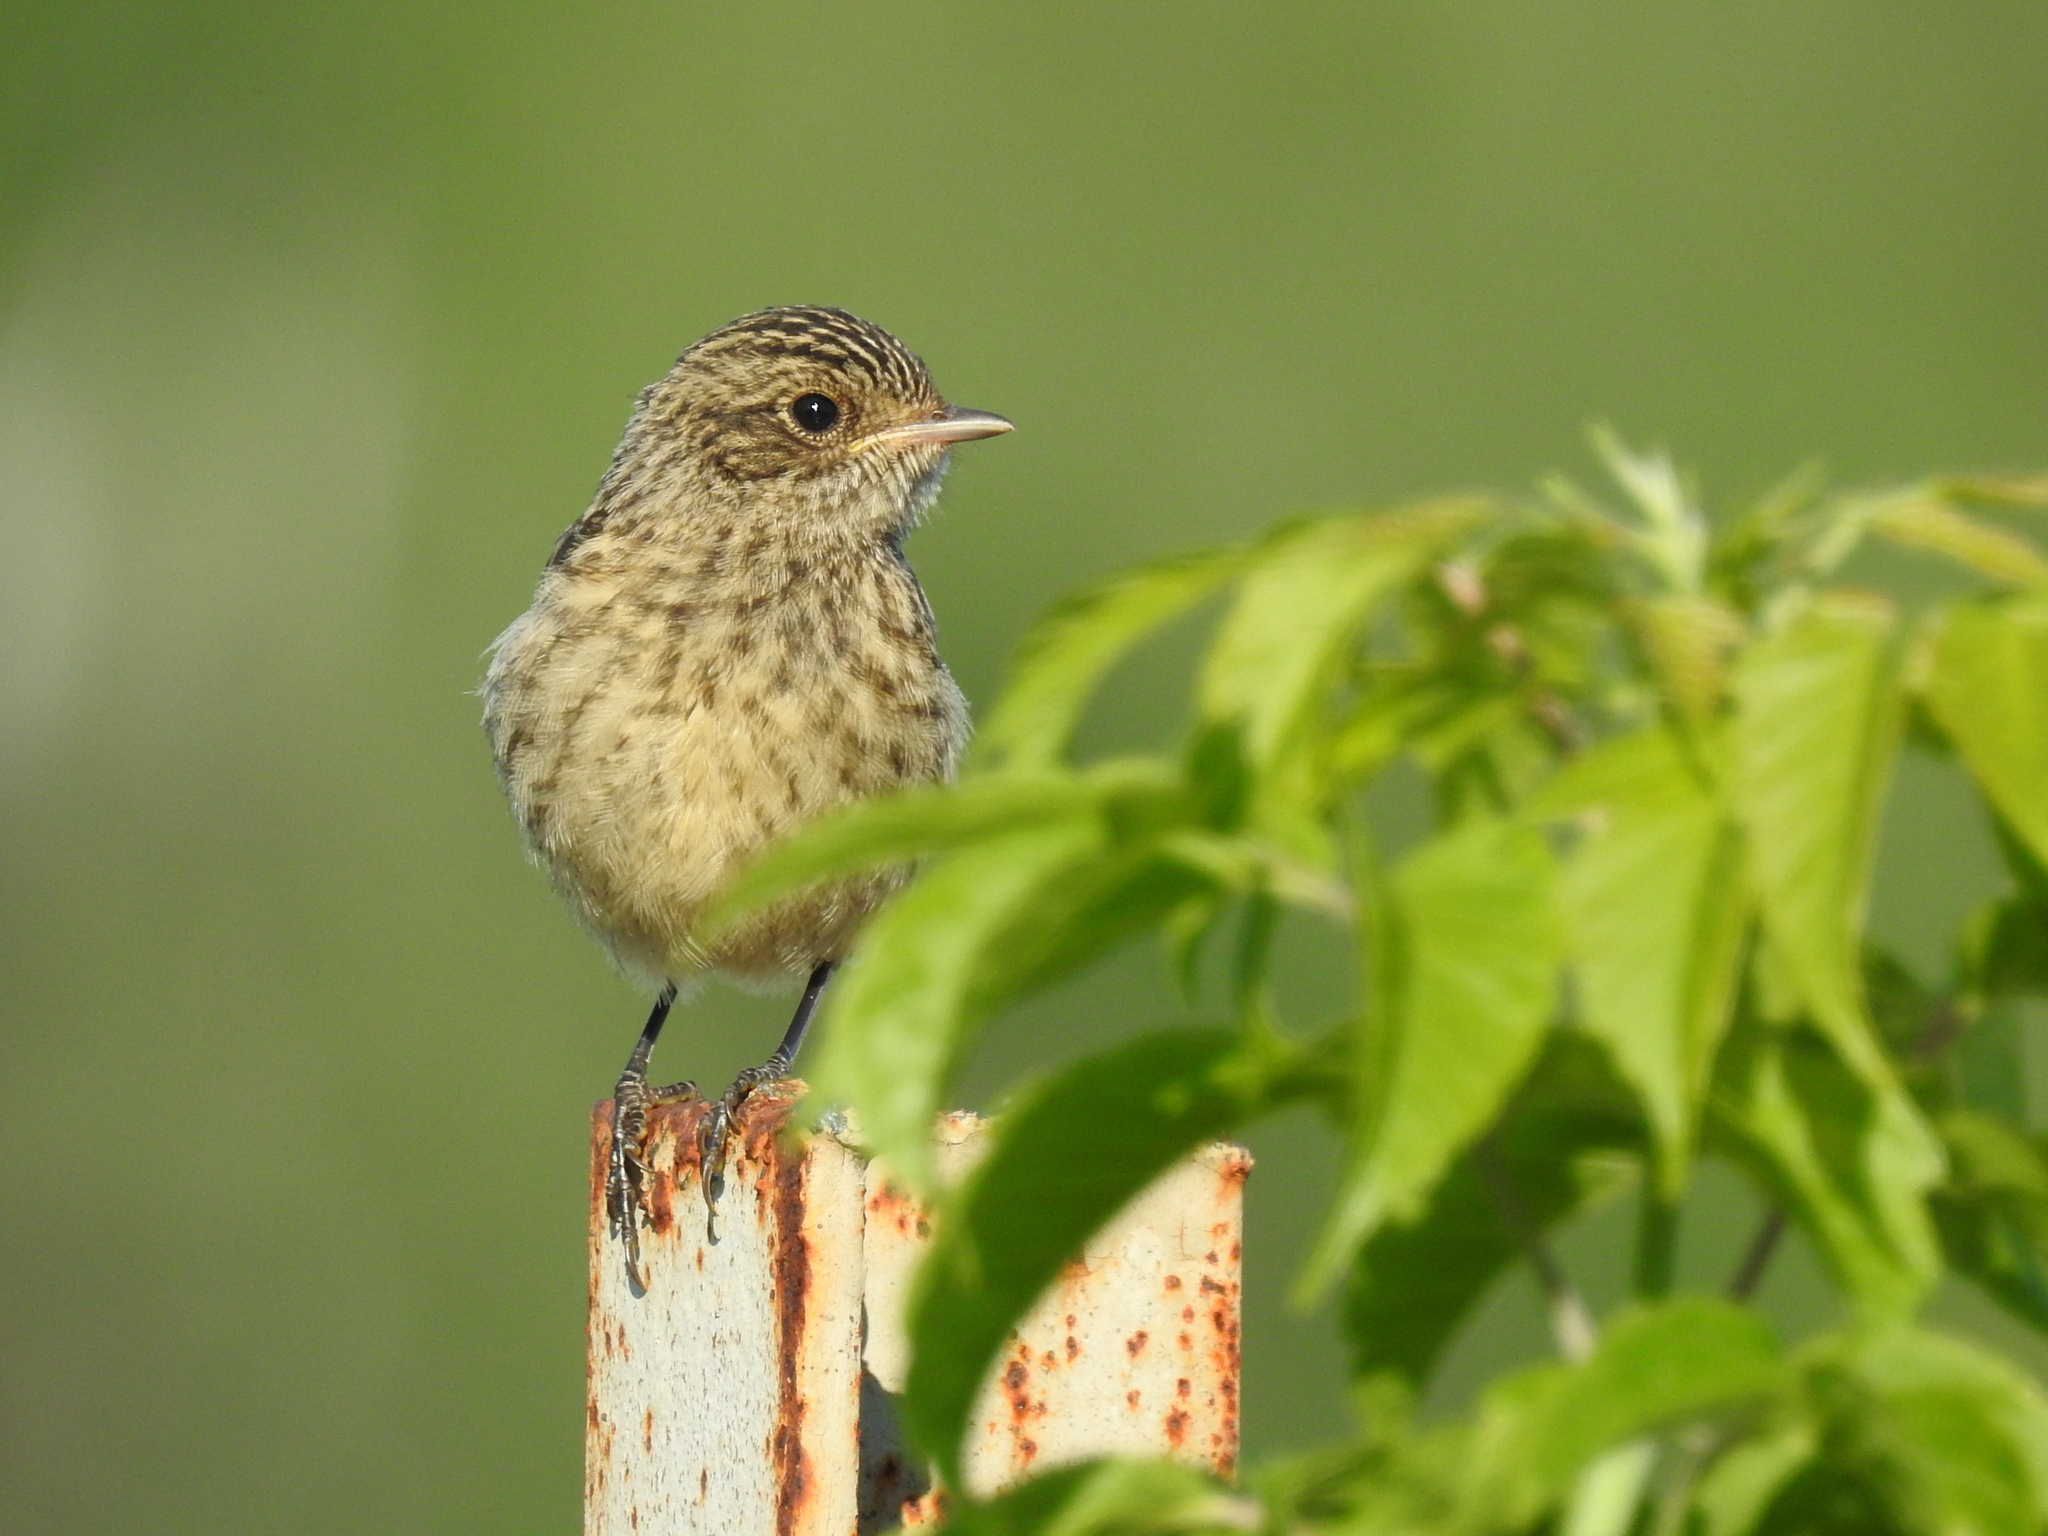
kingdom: Animalia
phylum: Chordata
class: Aves
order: Passeriformes
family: Muscicapidae
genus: Saxicola
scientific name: Saxicola maurus
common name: Siberian stonechat
